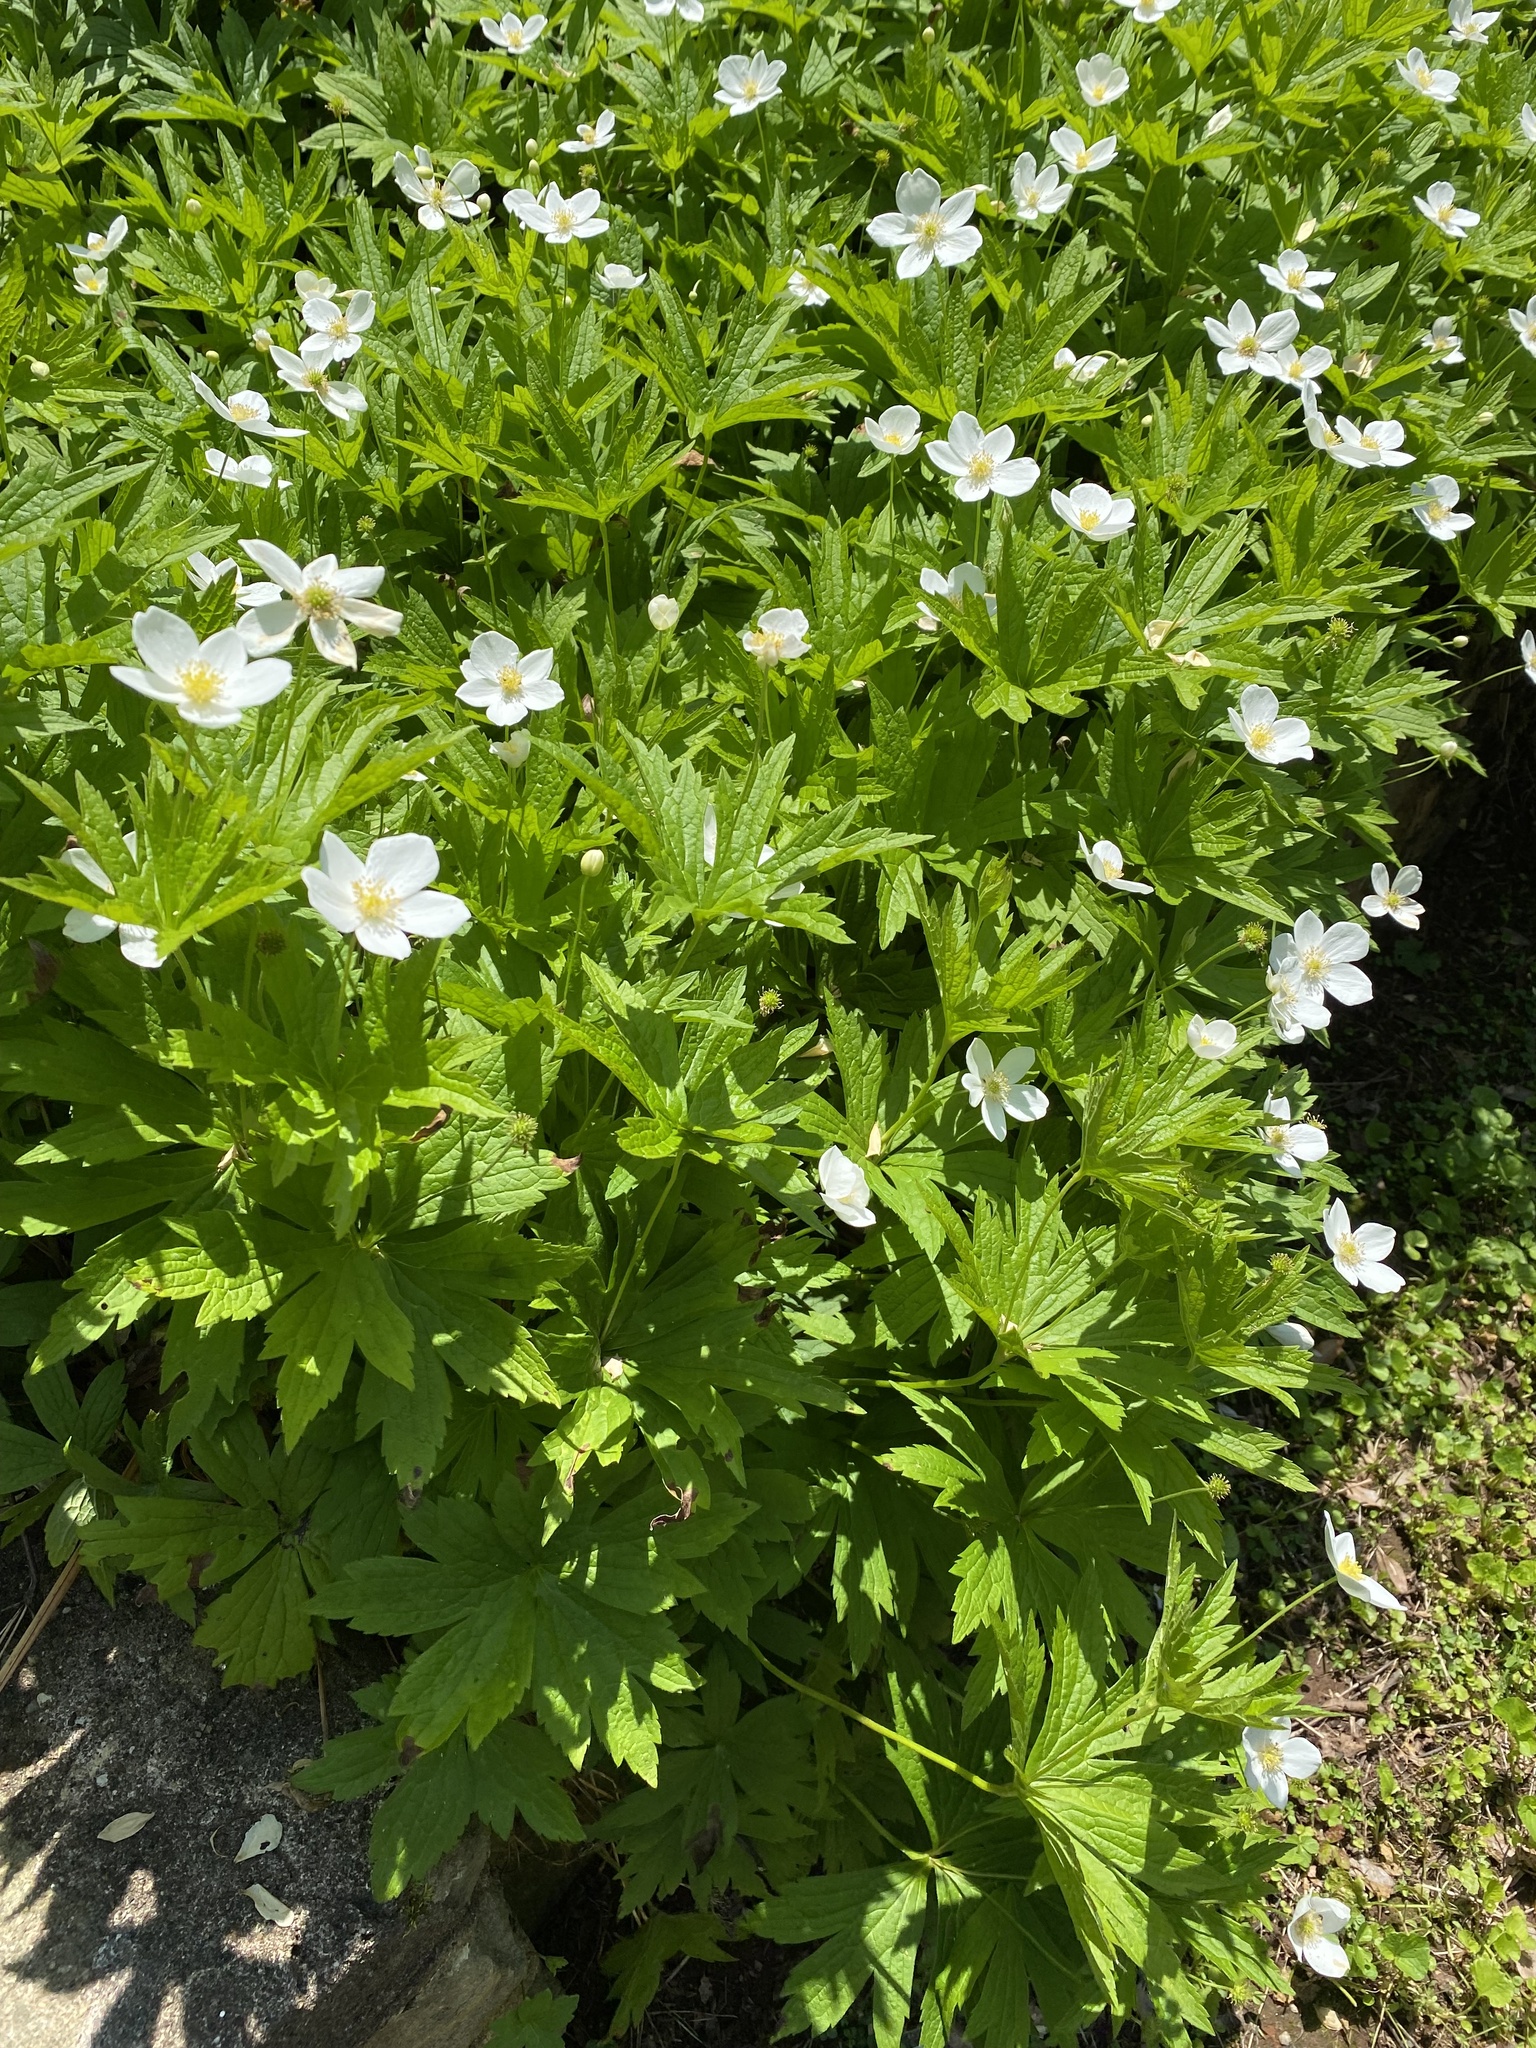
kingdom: Plantae
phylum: Tracheophyta
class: Magnoliopsida
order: Ranunculales
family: Ranunculaceae
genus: Anemonastrum
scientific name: Anemonastrum canadense
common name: Canada anemone
